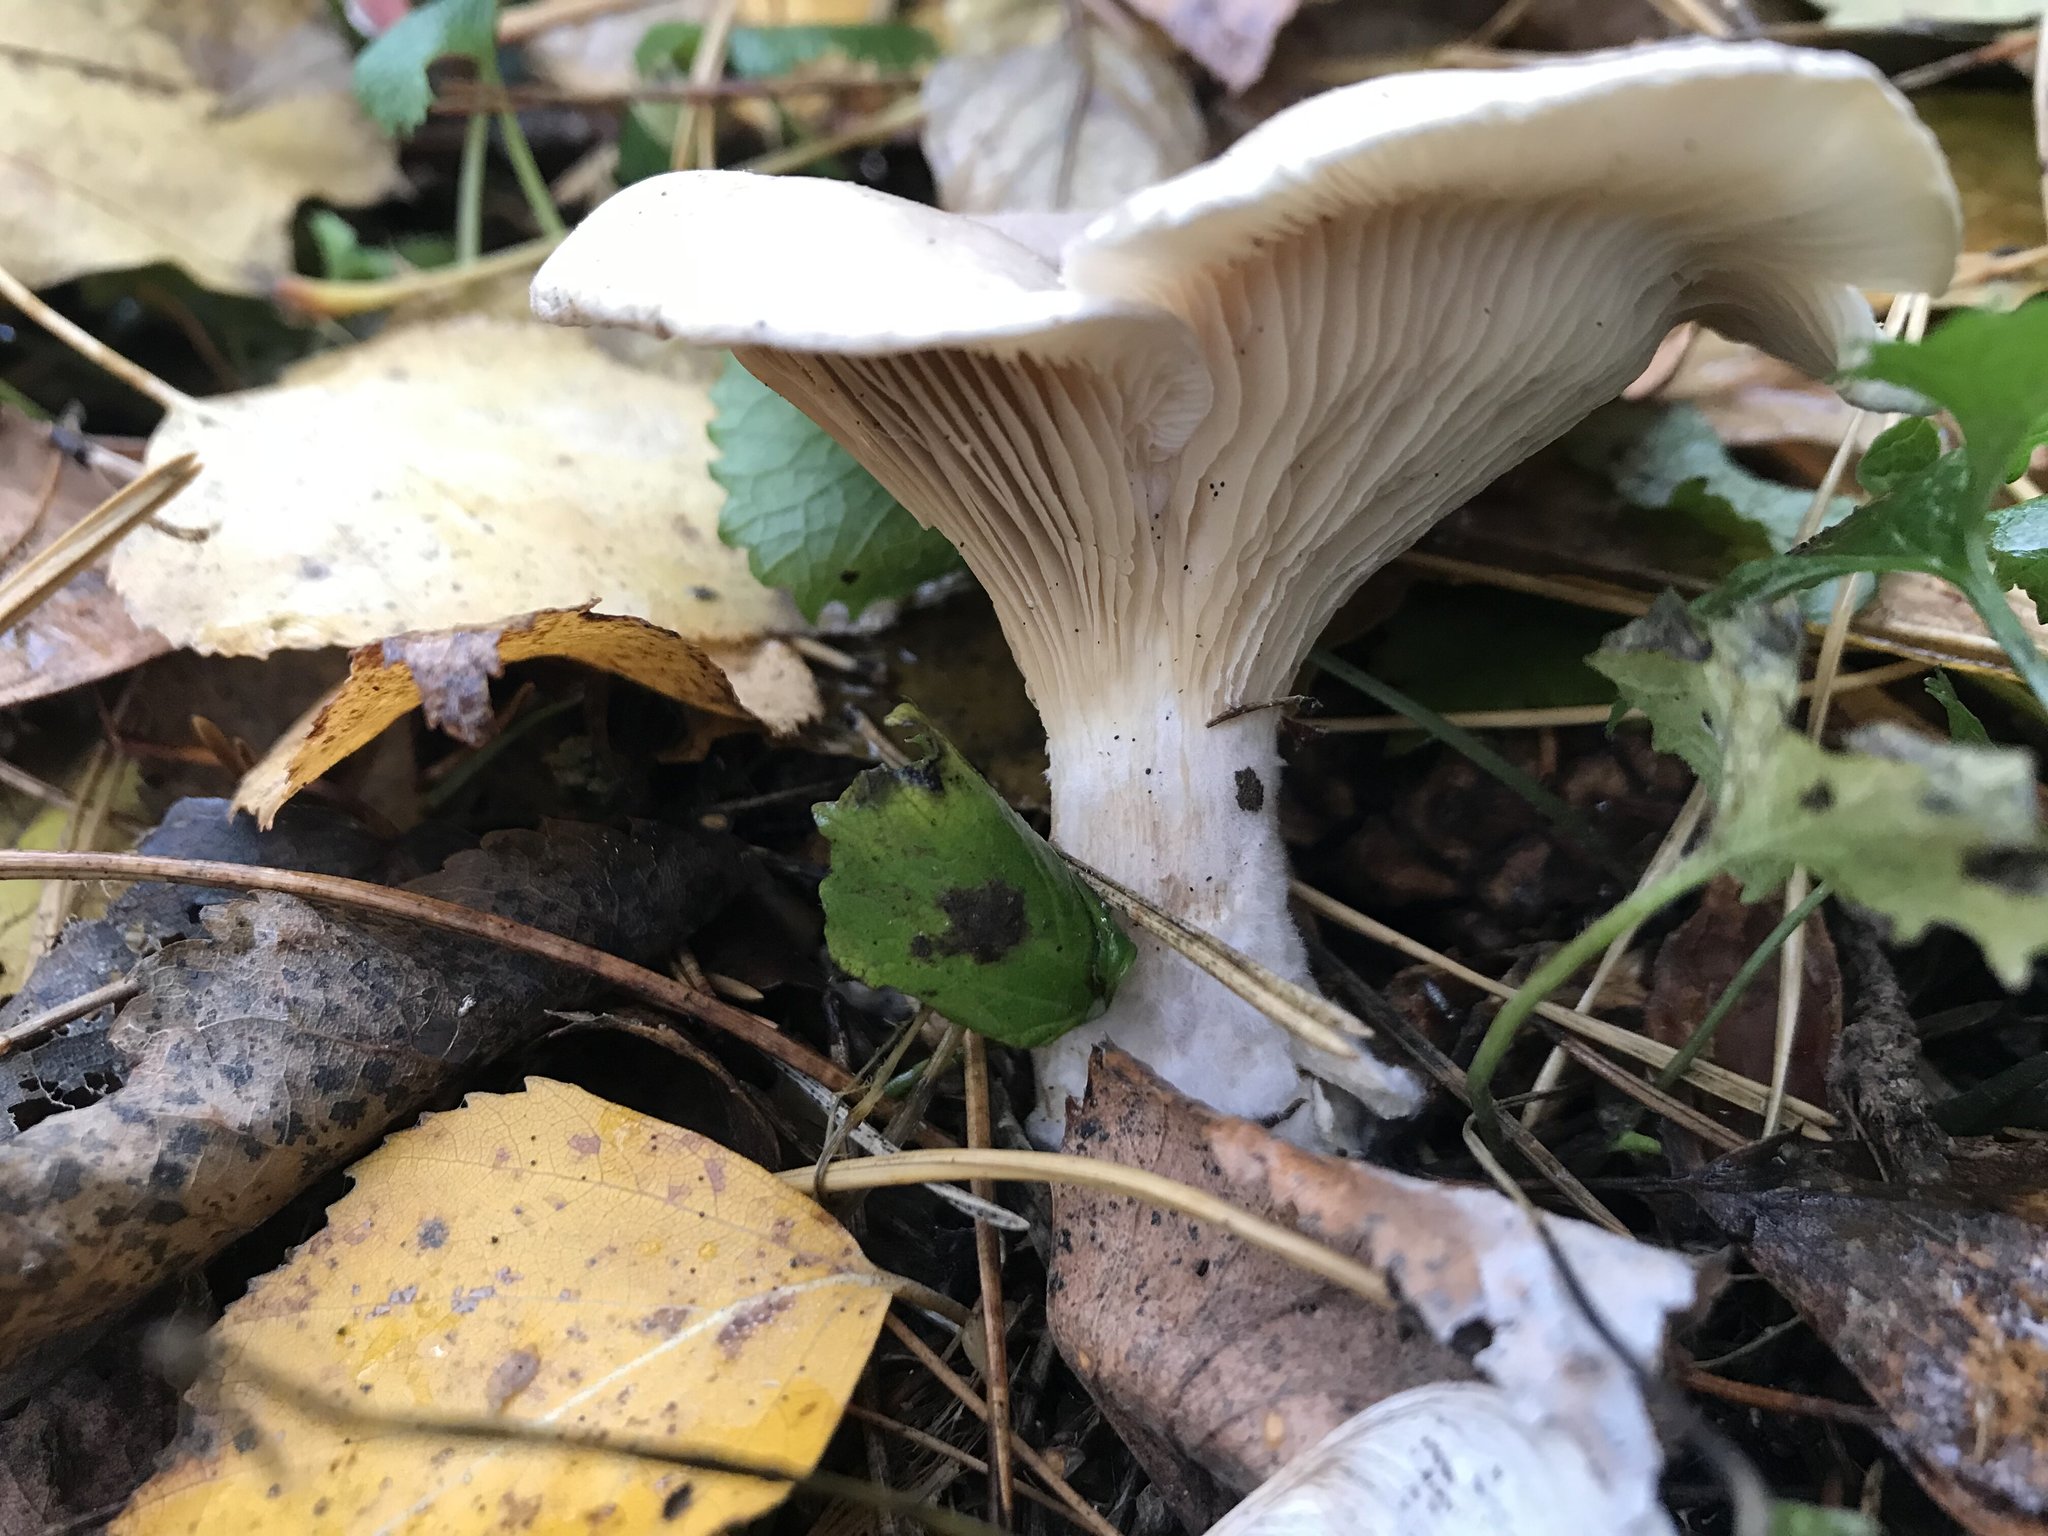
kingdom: Fungi
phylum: Basidiomycota
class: Agaricomycetes
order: Agaricales
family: Tricholomataceae
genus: Clitocybe
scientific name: Clitocybe nebularis
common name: Clouded agaric
